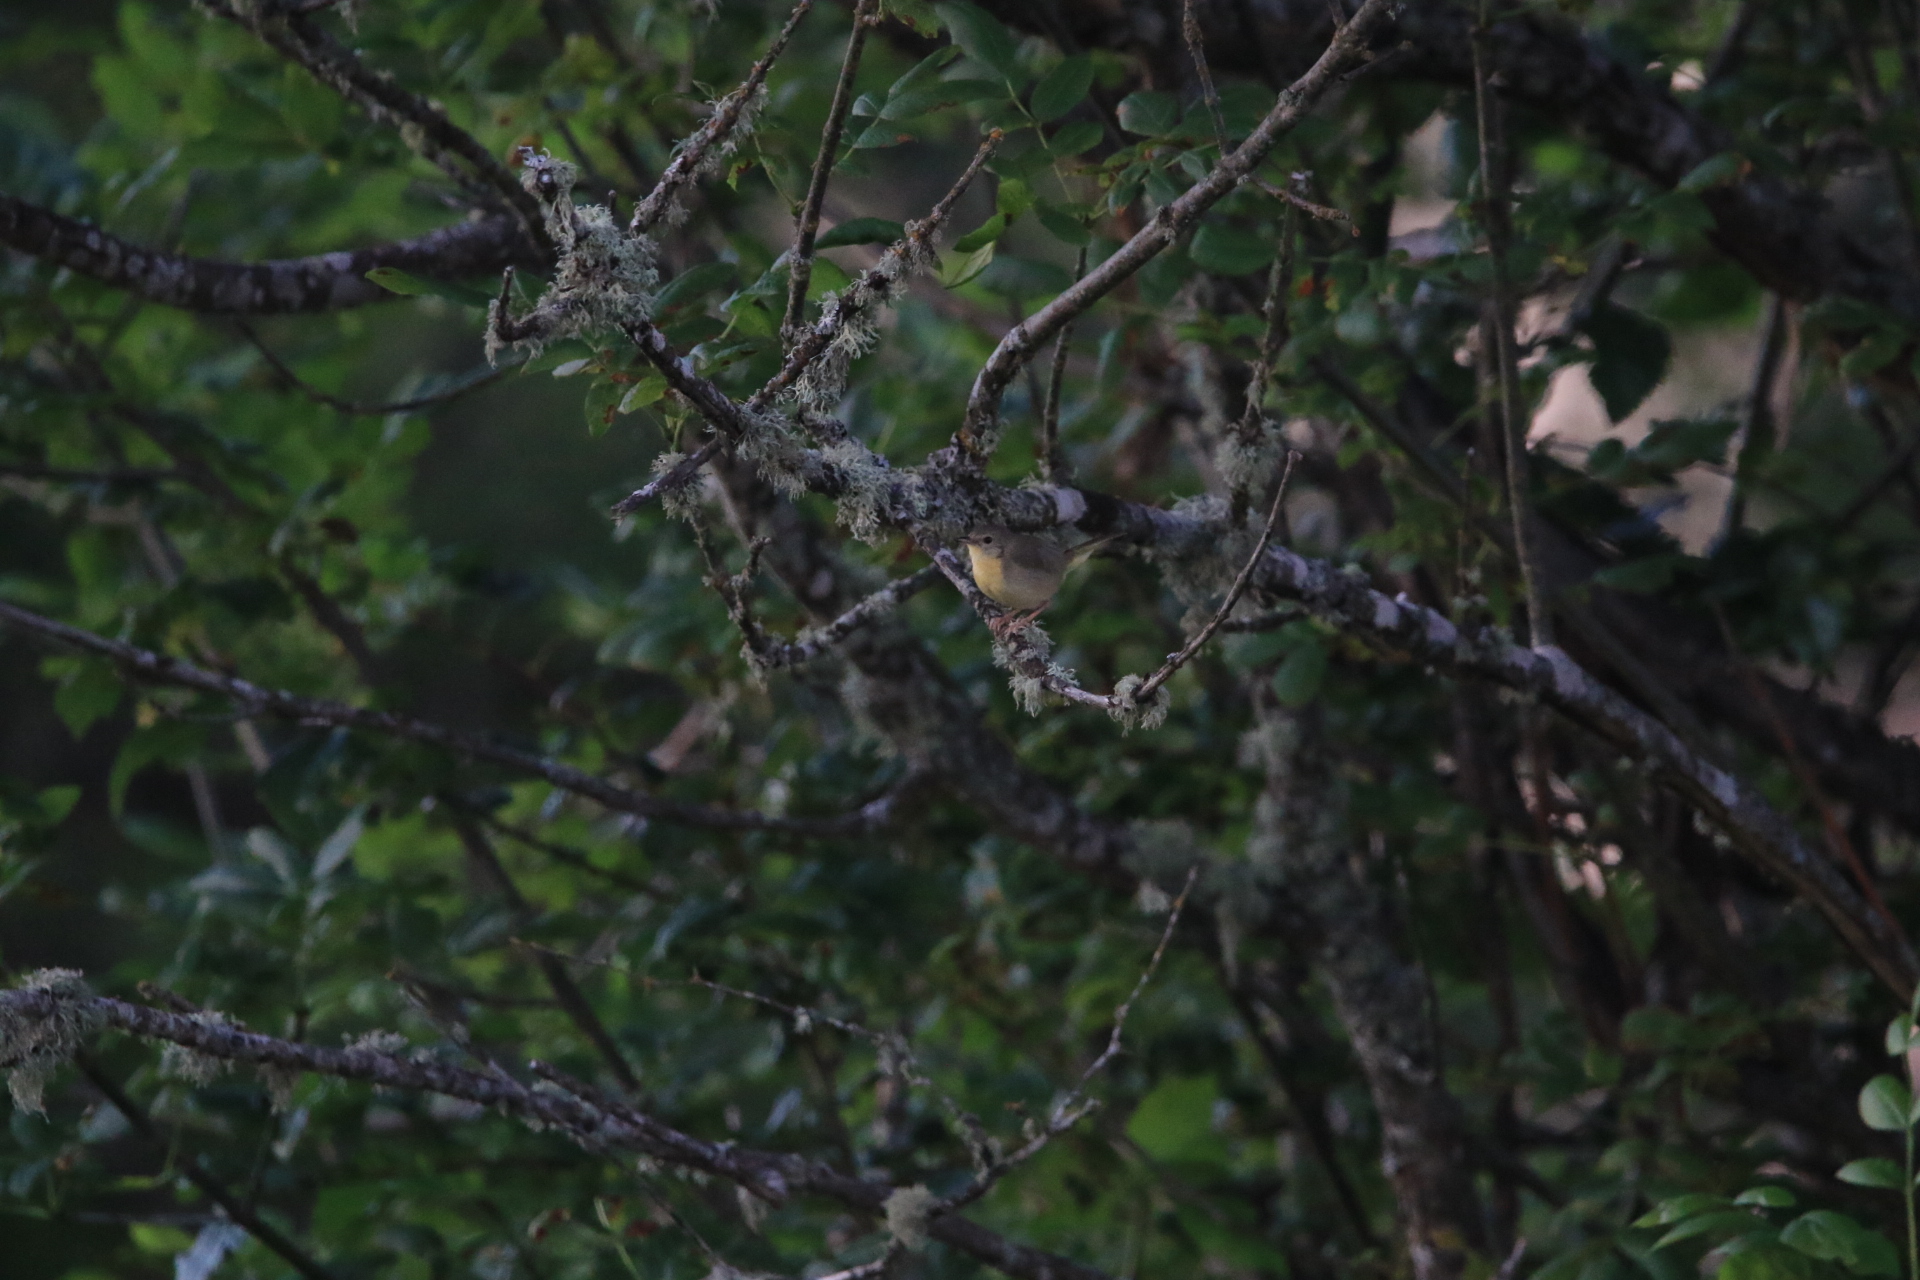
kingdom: Animalia
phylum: Chordata
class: Aves
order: Passeriformes
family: Parulidae
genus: Geothlypis
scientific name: Geothlypis trichas
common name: Common yellowthroat
